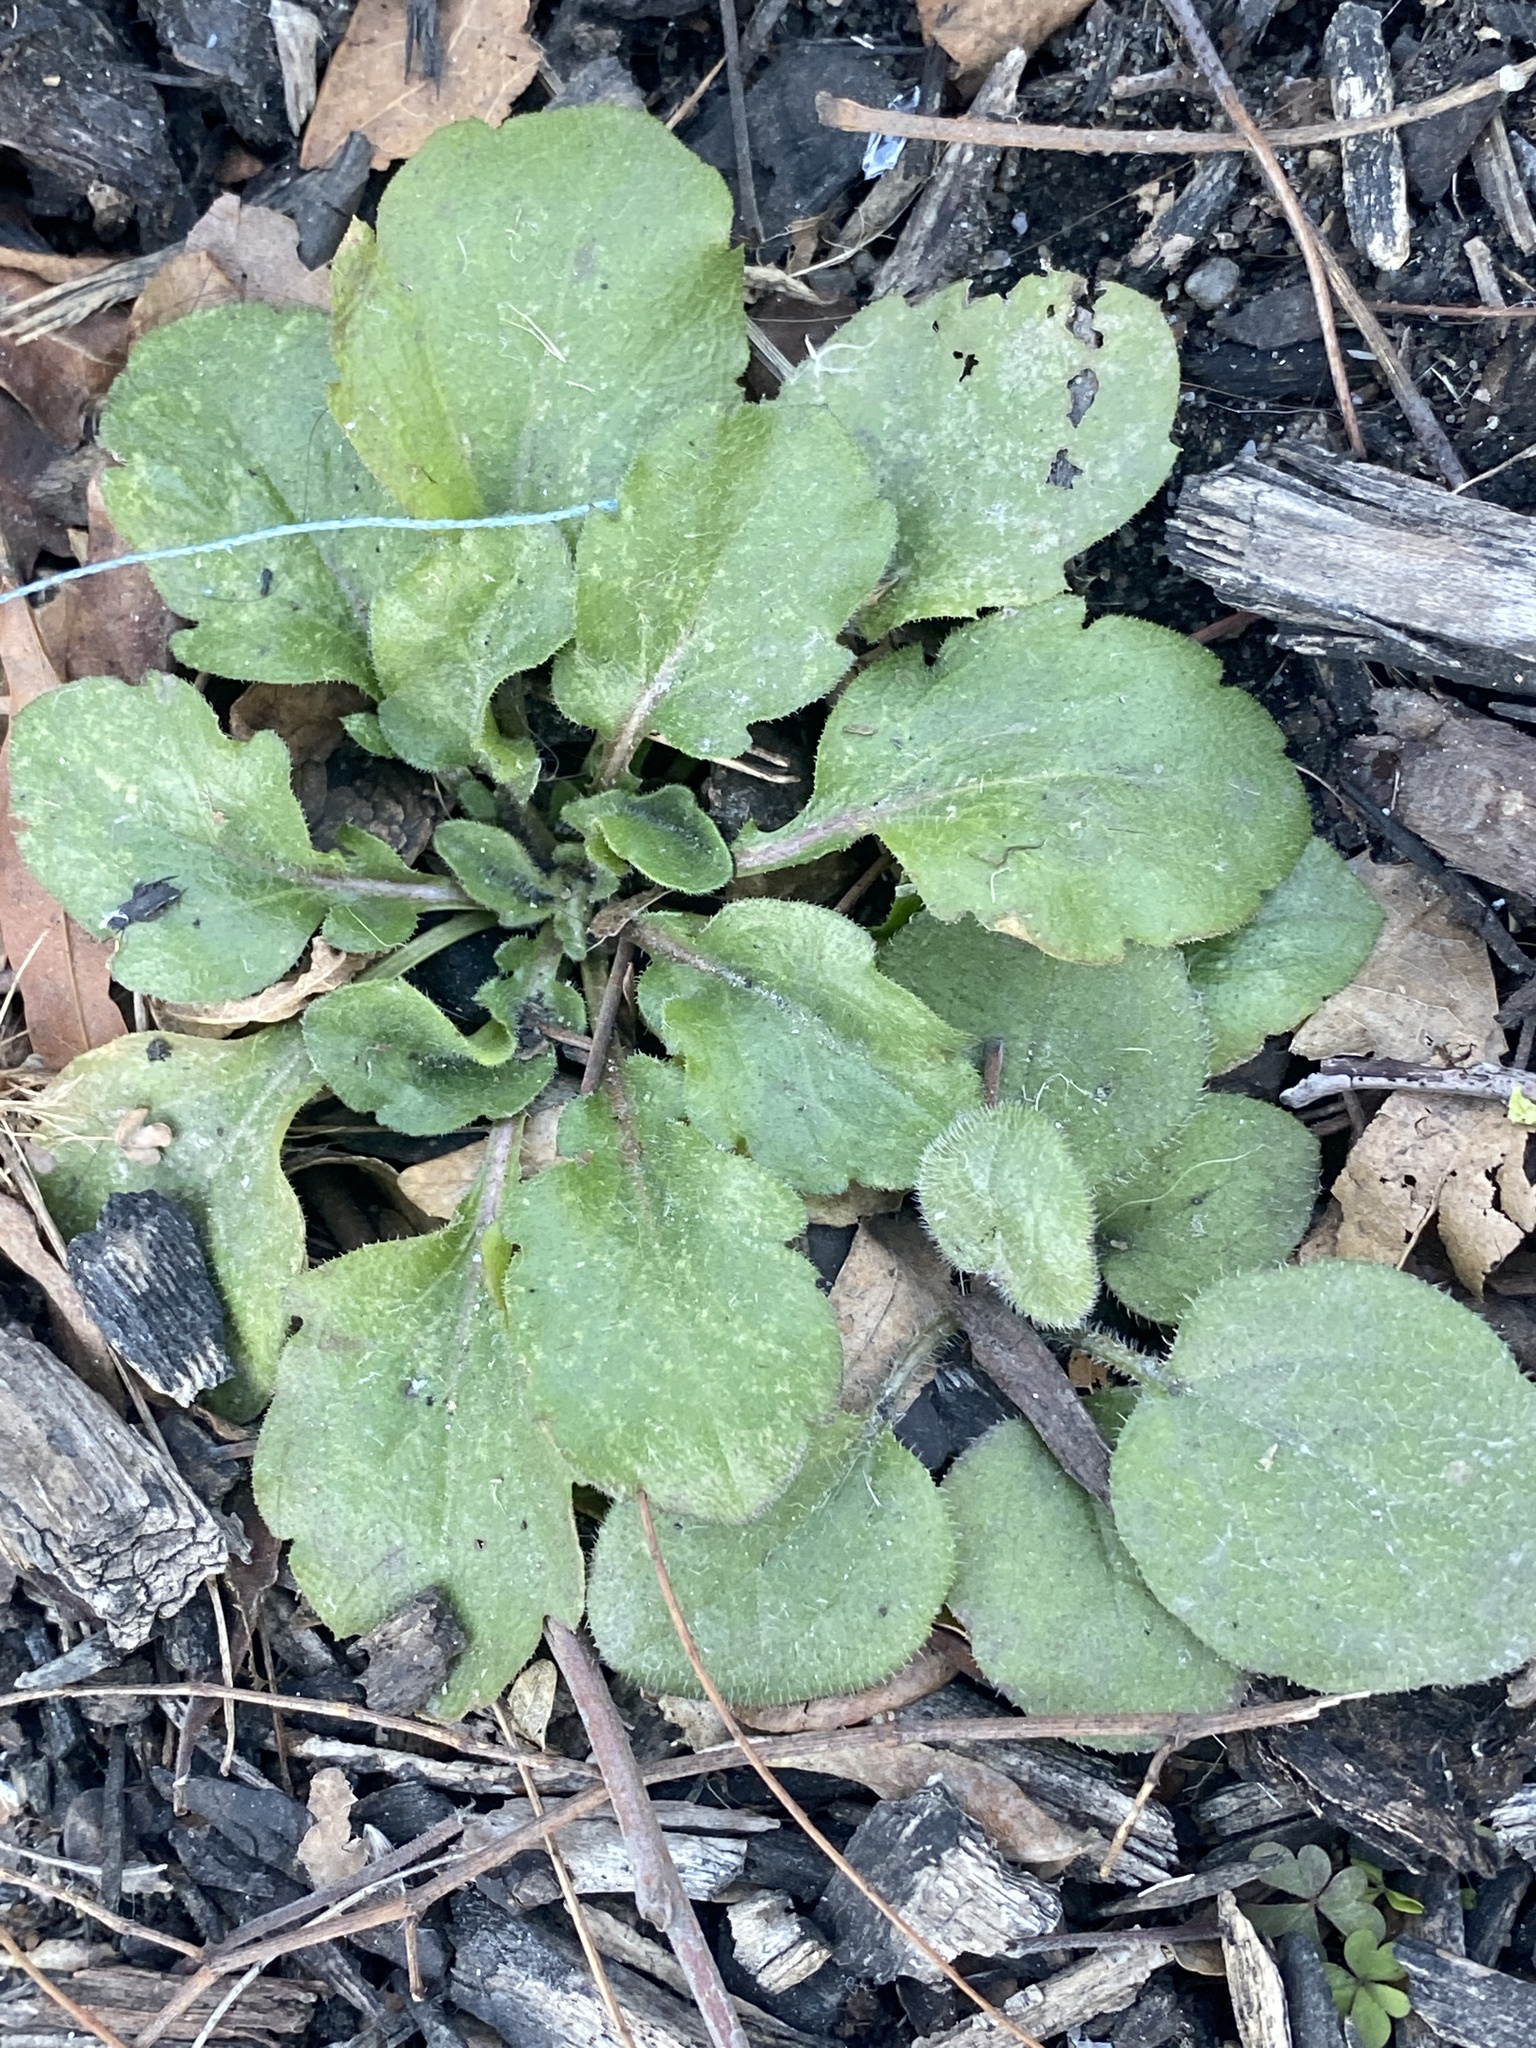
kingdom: Plantae
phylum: Tracheophyta
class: Magnoliopsida
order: Asterales
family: Asteraceae
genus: Erigeron
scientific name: Erigeron canadensis
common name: Canadian fleabane
